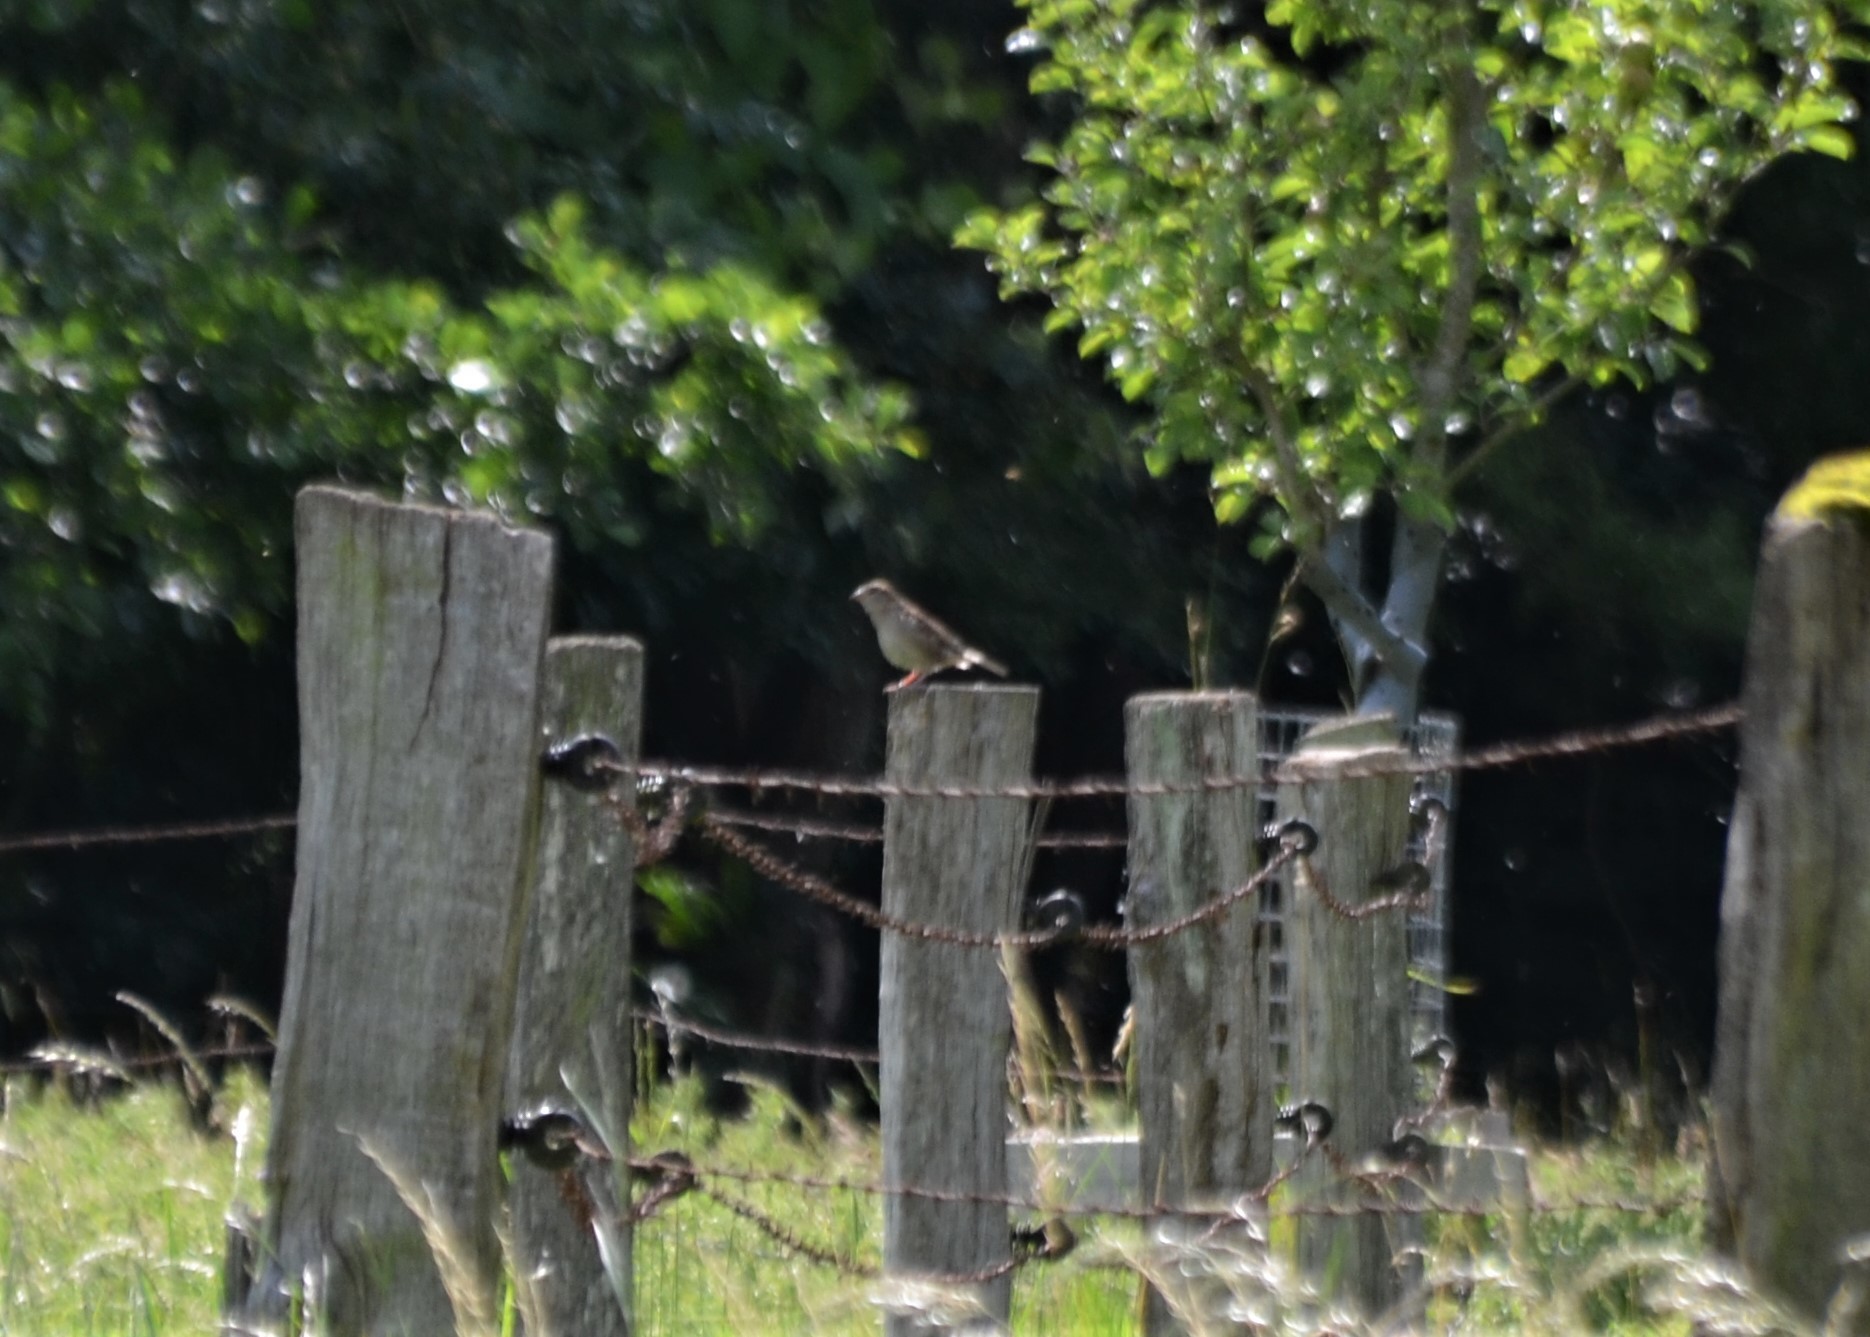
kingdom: Animalia
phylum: Chordata
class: Aves
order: Passeriformes
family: Passeridae
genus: Passer
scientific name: Passer domesticus
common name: House sparrow
